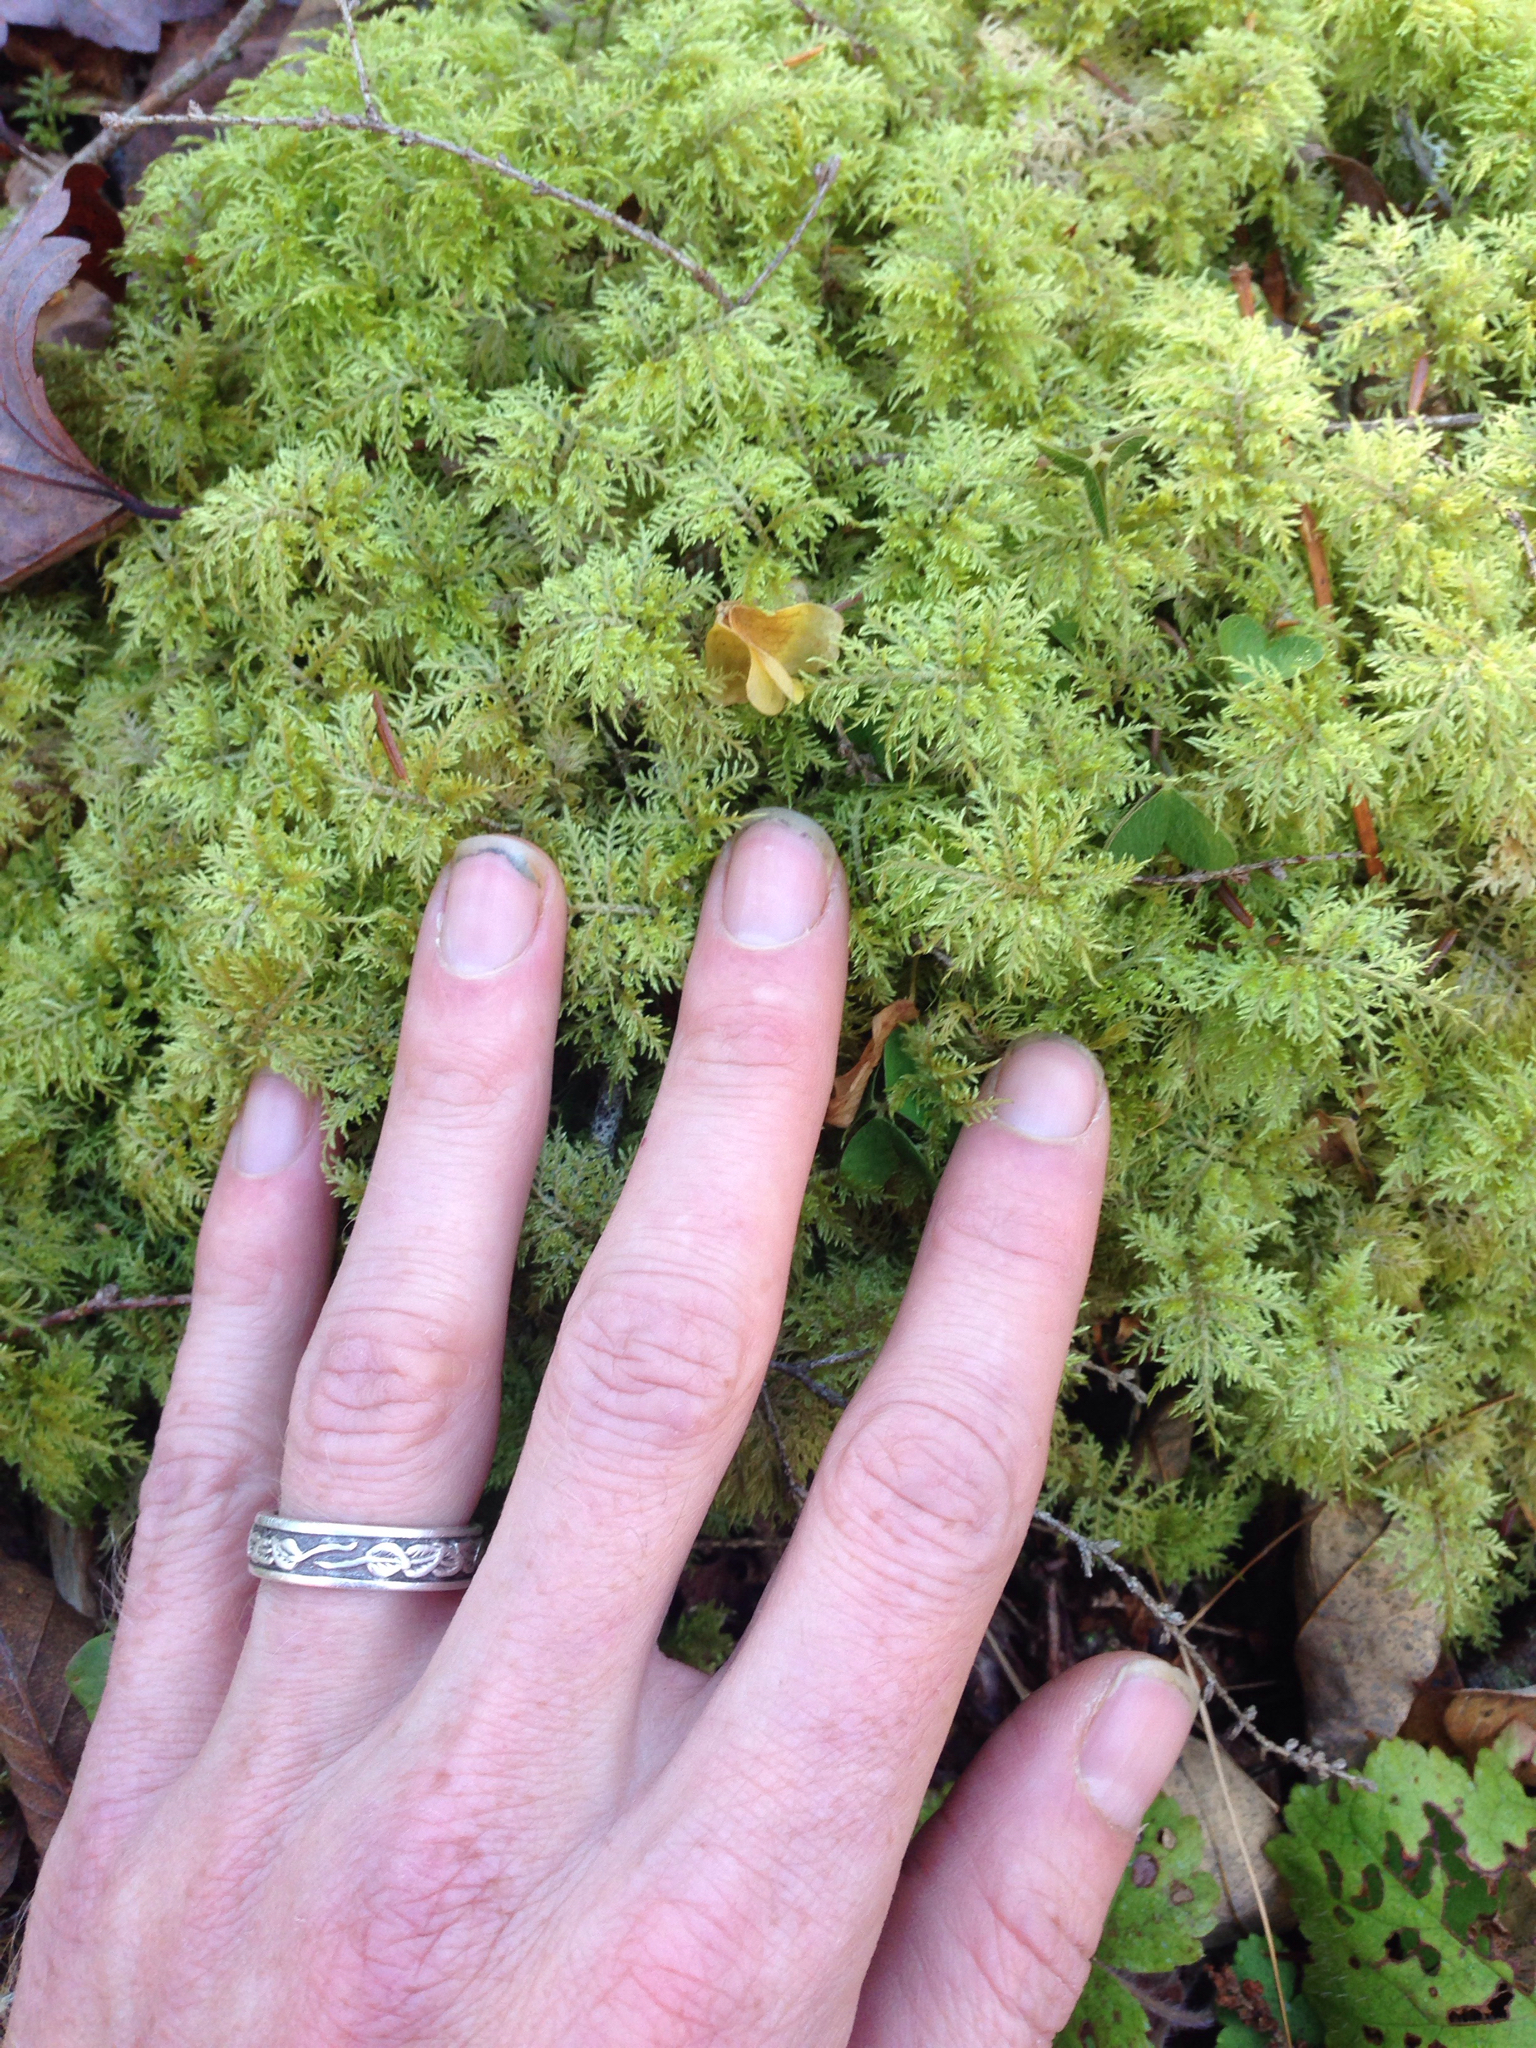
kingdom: Plantae
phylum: Bryophyta
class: Bryopsida
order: Hypnales
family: Hylocomiaceae
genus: Hylocomium
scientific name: Hylocomium splendens
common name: Stairstep moss
